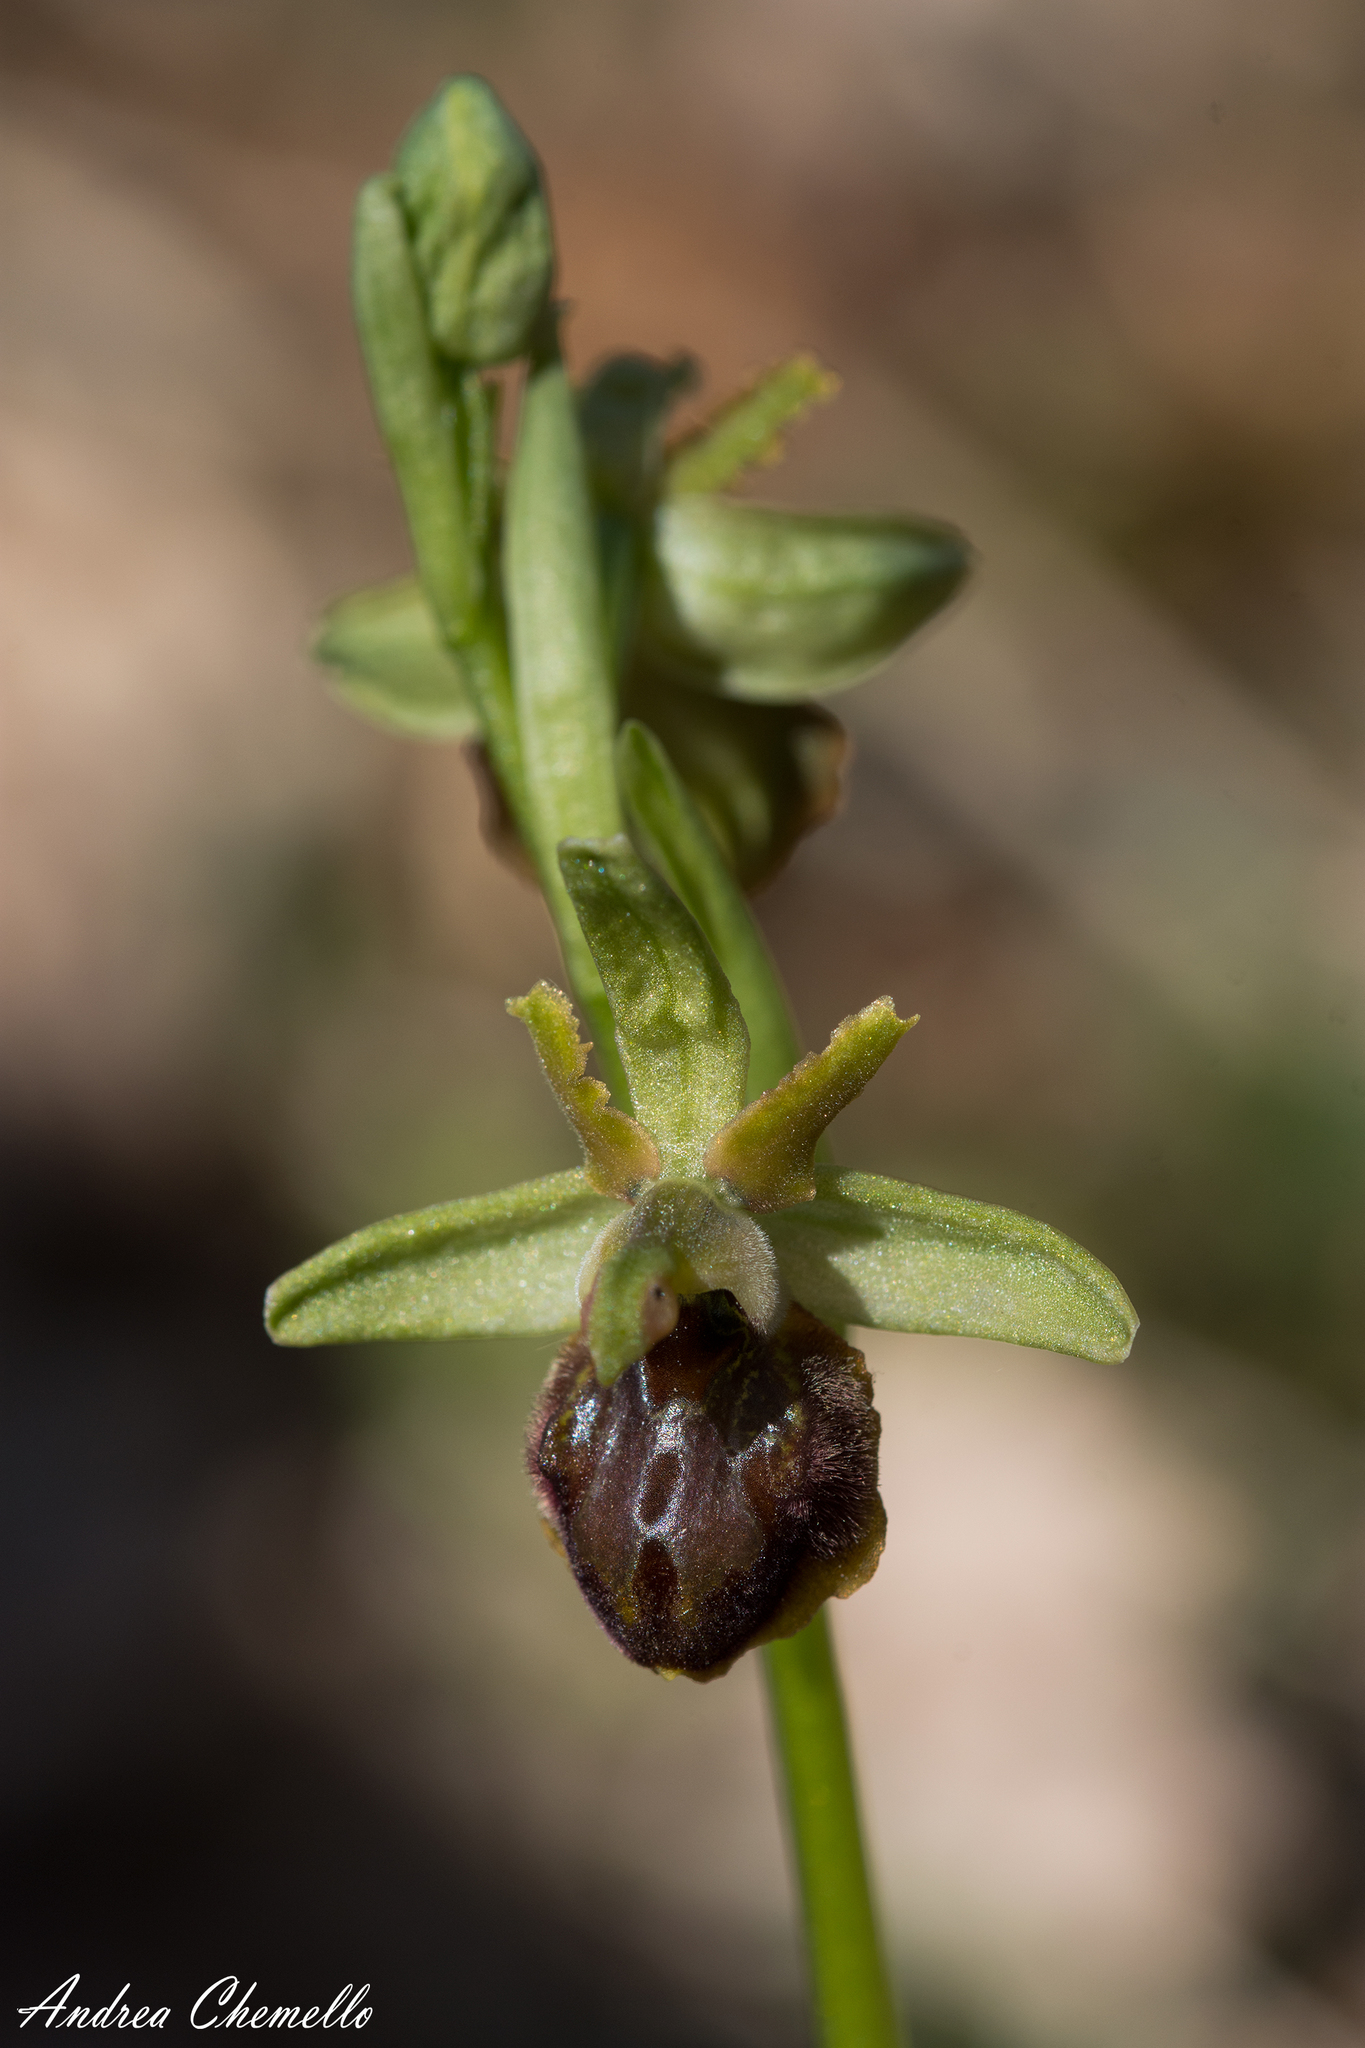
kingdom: Plantae
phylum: Tracheophyta
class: Liliopsida
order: Asparagales
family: Orchidaceae
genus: Ophrys
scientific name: Ophrys sphegodes
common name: Early spider-orchid
